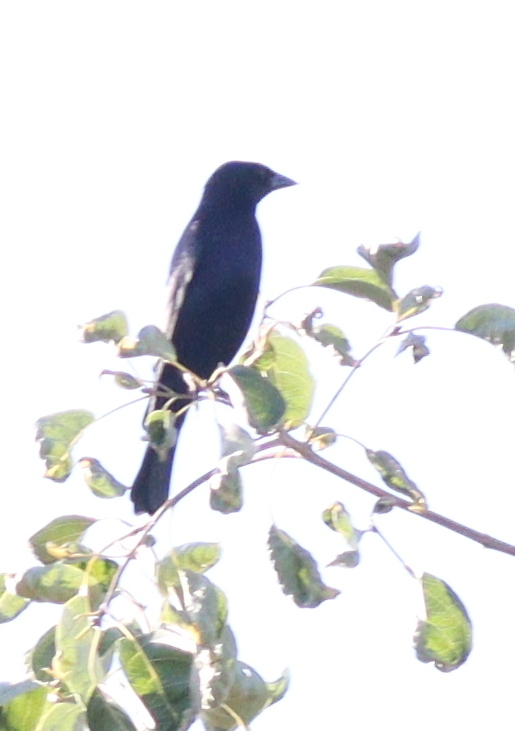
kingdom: Animalia
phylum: Chordata
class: Aves
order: Passeriformes
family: Icteridae
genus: Molothrus
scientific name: Molothrus bonariensis
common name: Shiny cowbird
